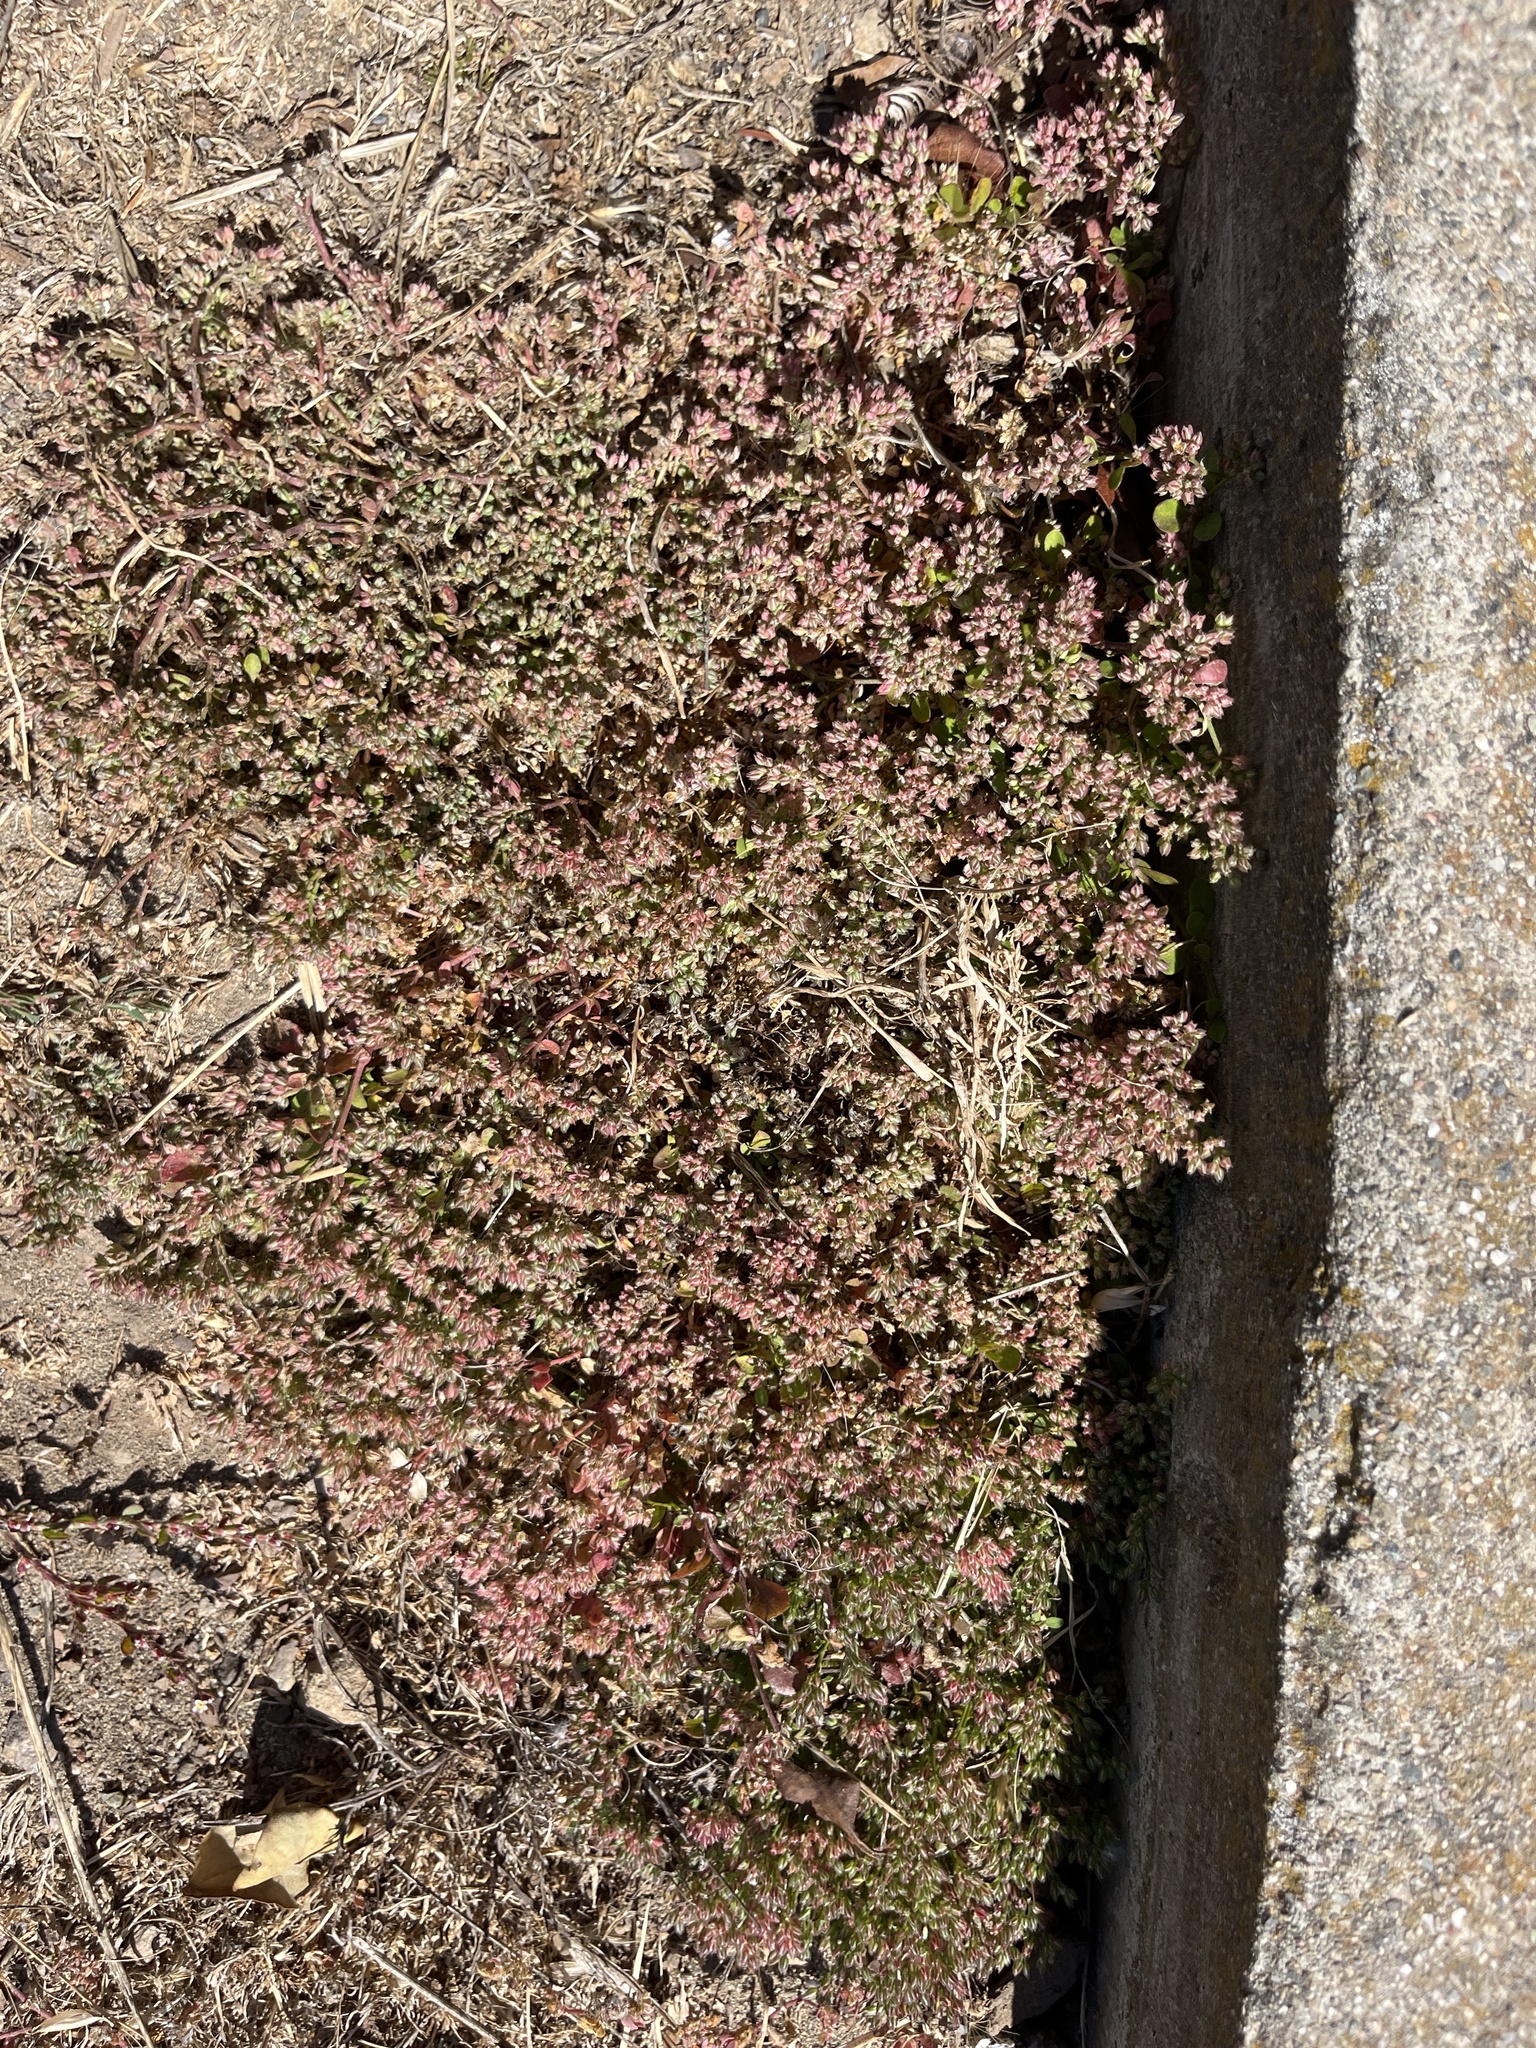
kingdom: Plantae
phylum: Tracheophyta
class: Magnoliopsida
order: Caryophyllales
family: Caryophyllaceae
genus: Polycarpon
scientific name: Polycarpon tetraphyllum
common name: Four-leaved all-seed
